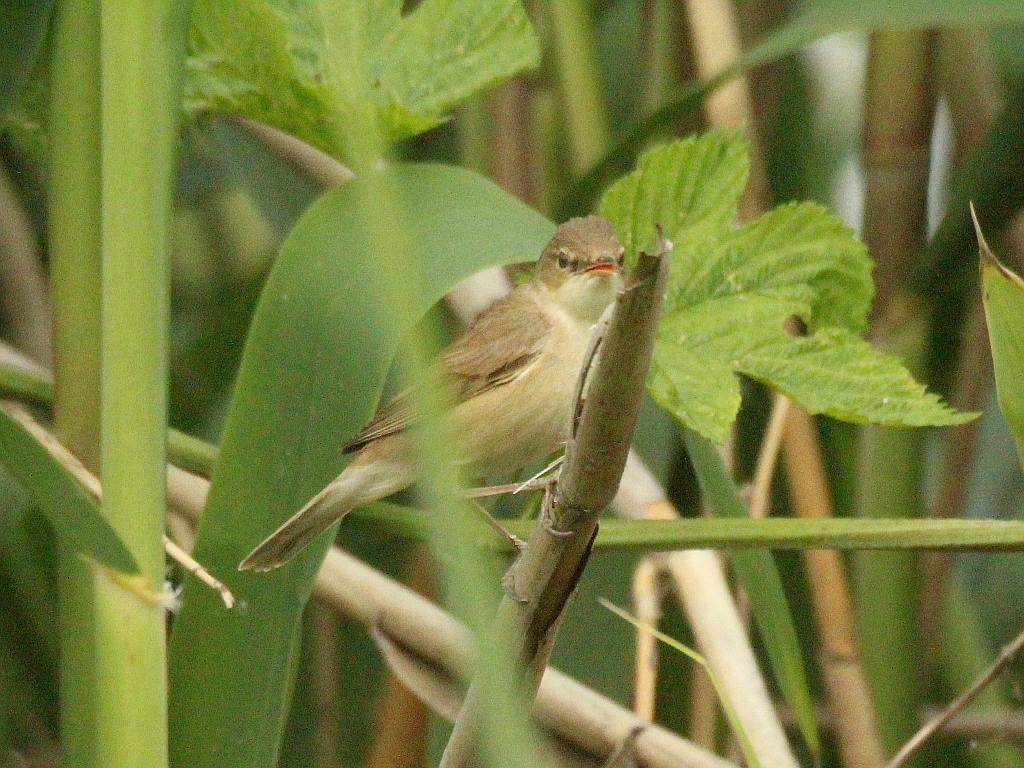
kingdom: Animalia
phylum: Chordata
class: Aves
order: Passeriformes
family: Acrocephalidae
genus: Acrocephalus
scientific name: Acrocephalus scirpaceus
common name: Eurasian reed warbler
